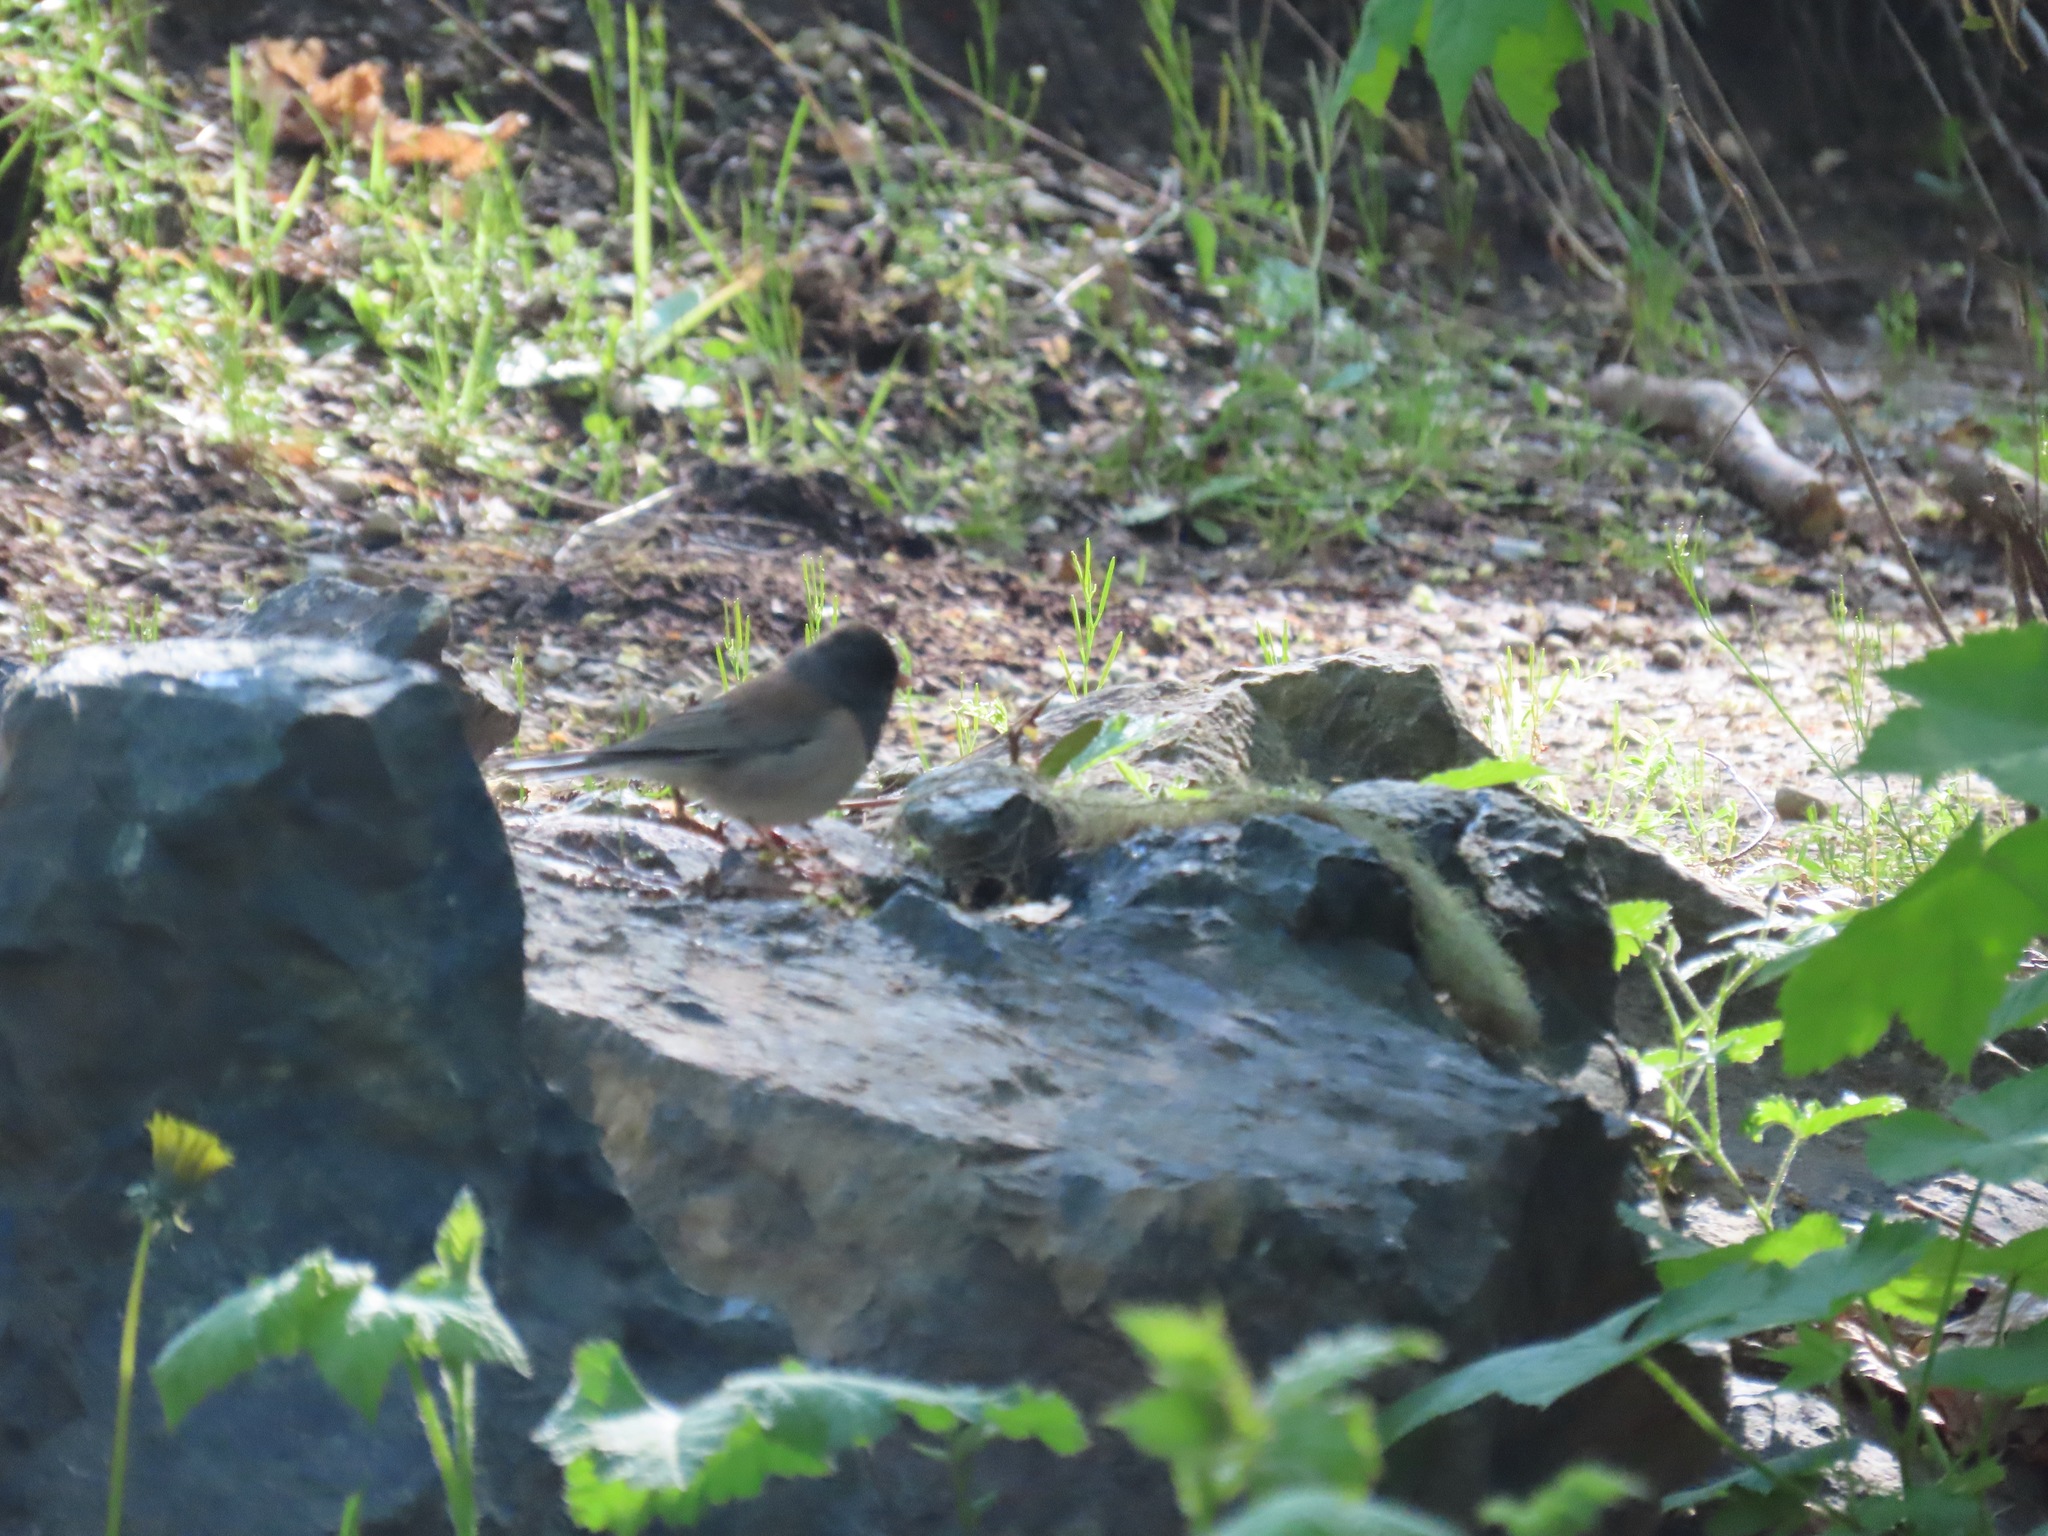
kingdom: Animalia
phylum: Chordata
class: Aves
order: Passeriformes
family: Passerellidae
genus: Junco
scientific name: Junco hyemalis
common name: Dark-eyed junco
